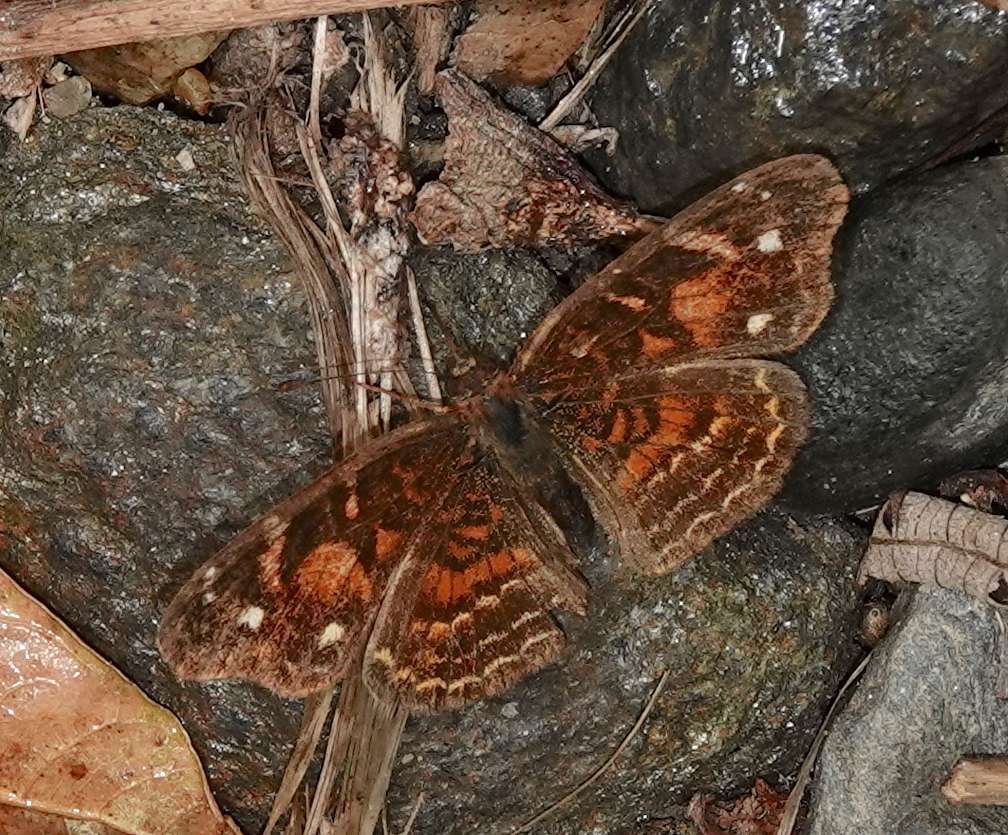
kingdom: Animalia
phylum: Arthropoda
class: Insecta
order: Lepidoptera
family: Nymphalidae
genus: Anthanassa
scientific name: Anthanassa acesas
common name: Cloudforest crescent
